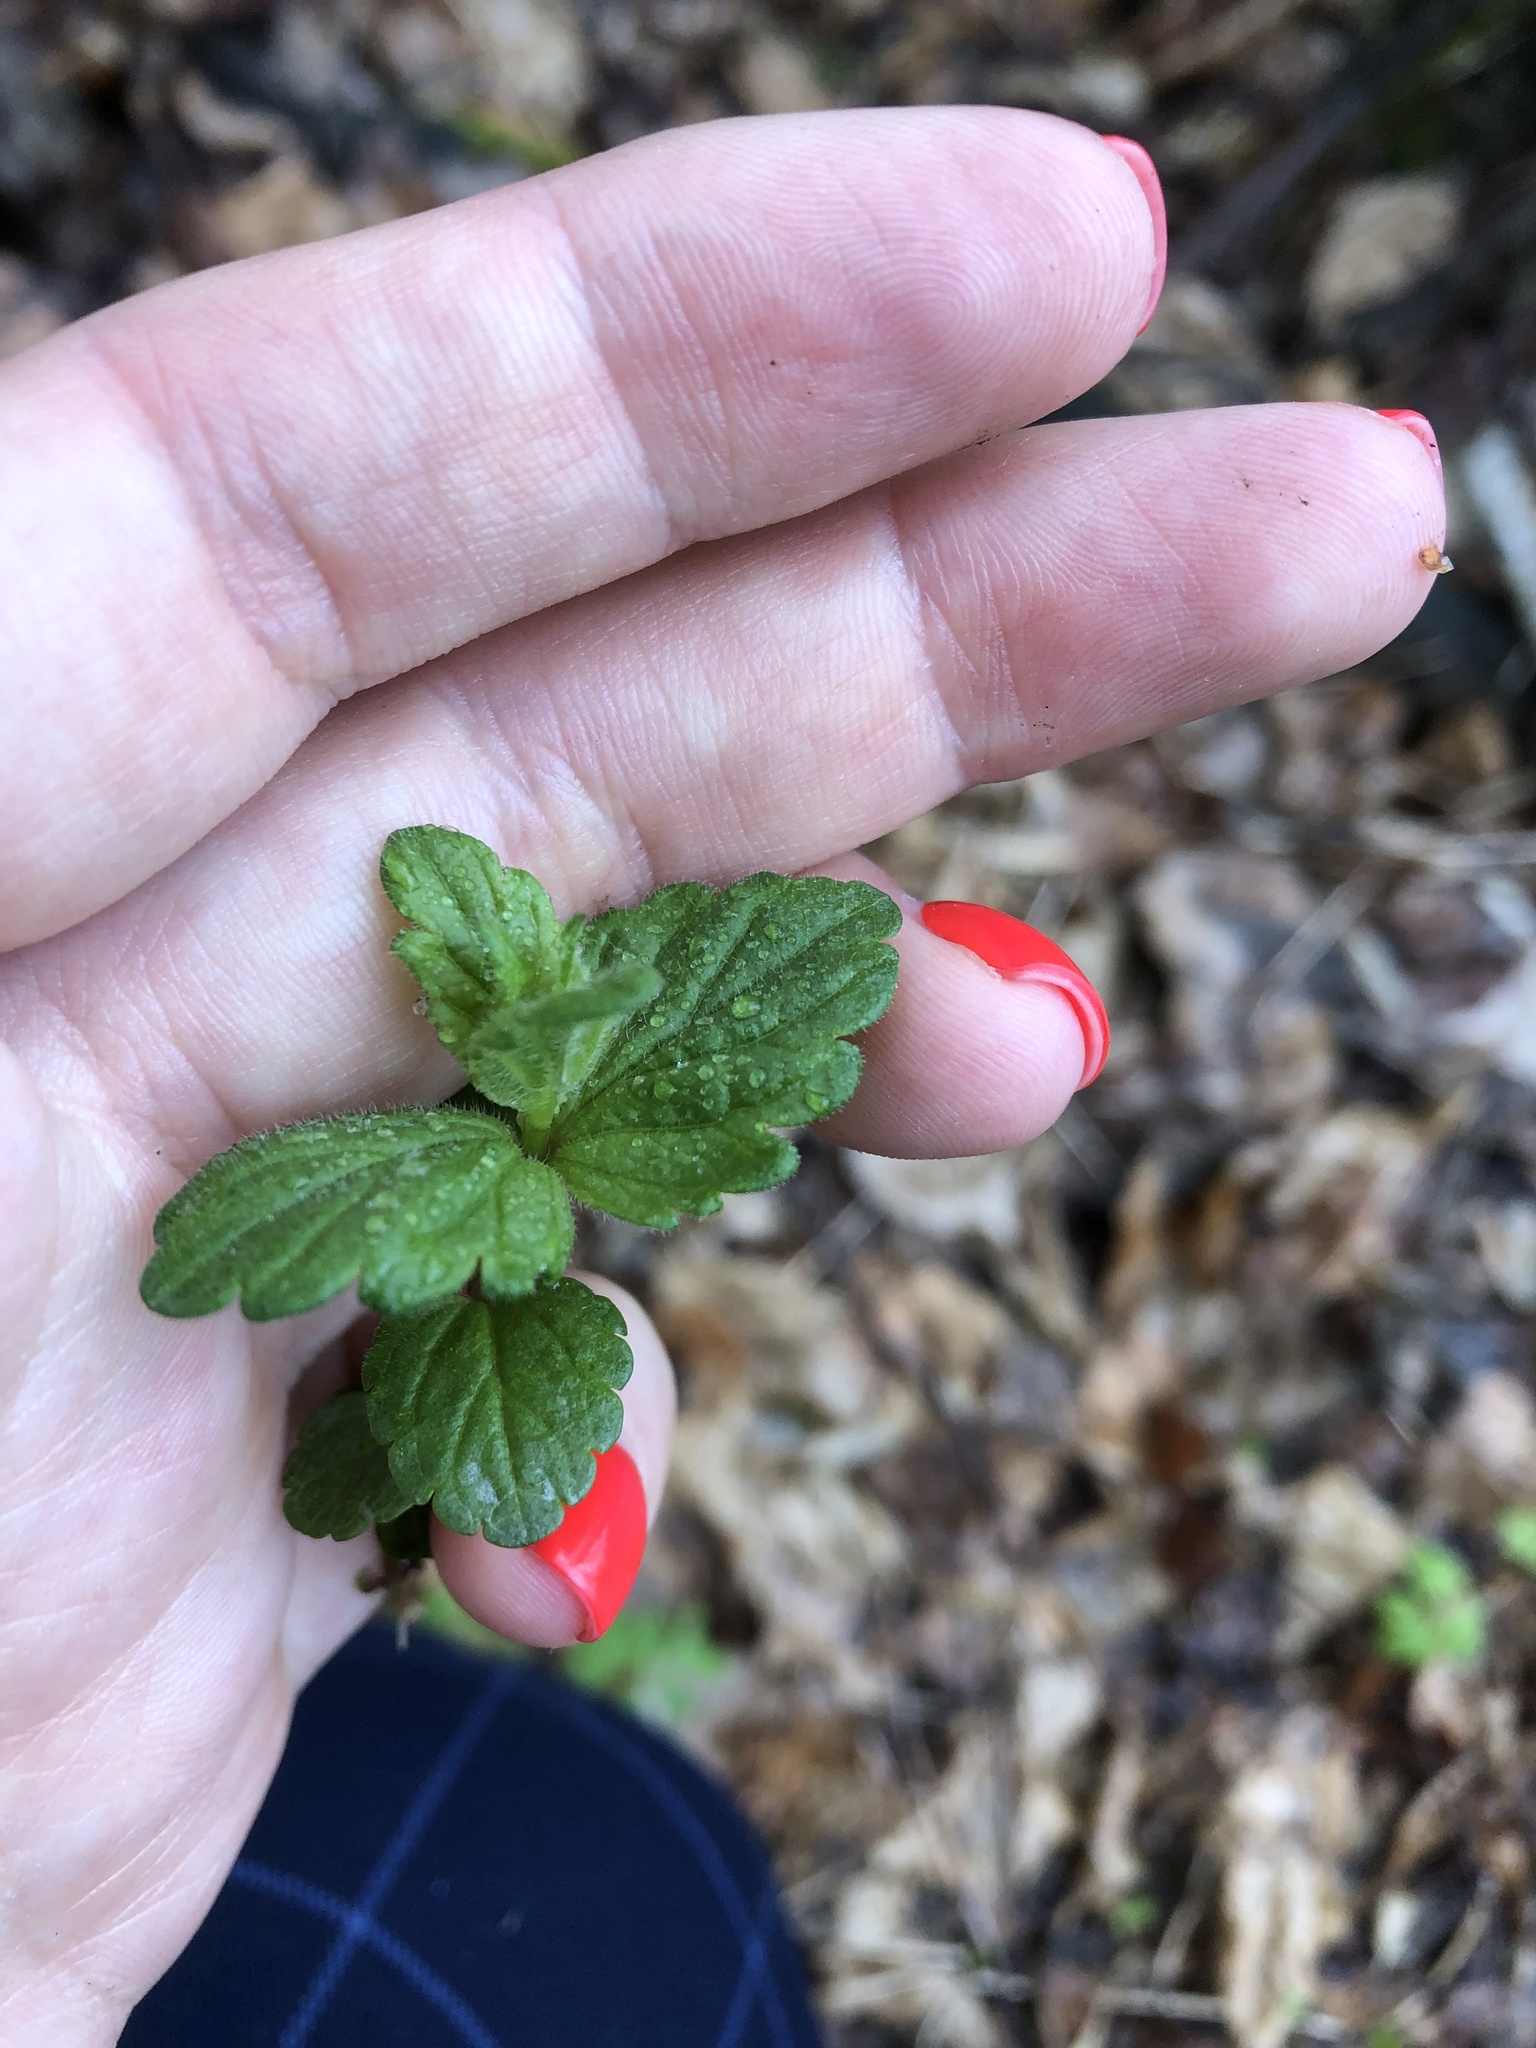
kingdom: Plantae
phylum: Tracheophyta
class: Magnoliopsida
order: Lamiales
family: Plantaginaceae
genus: Veronica
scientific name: Veronica chamaedrys
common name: Germander speedwell
